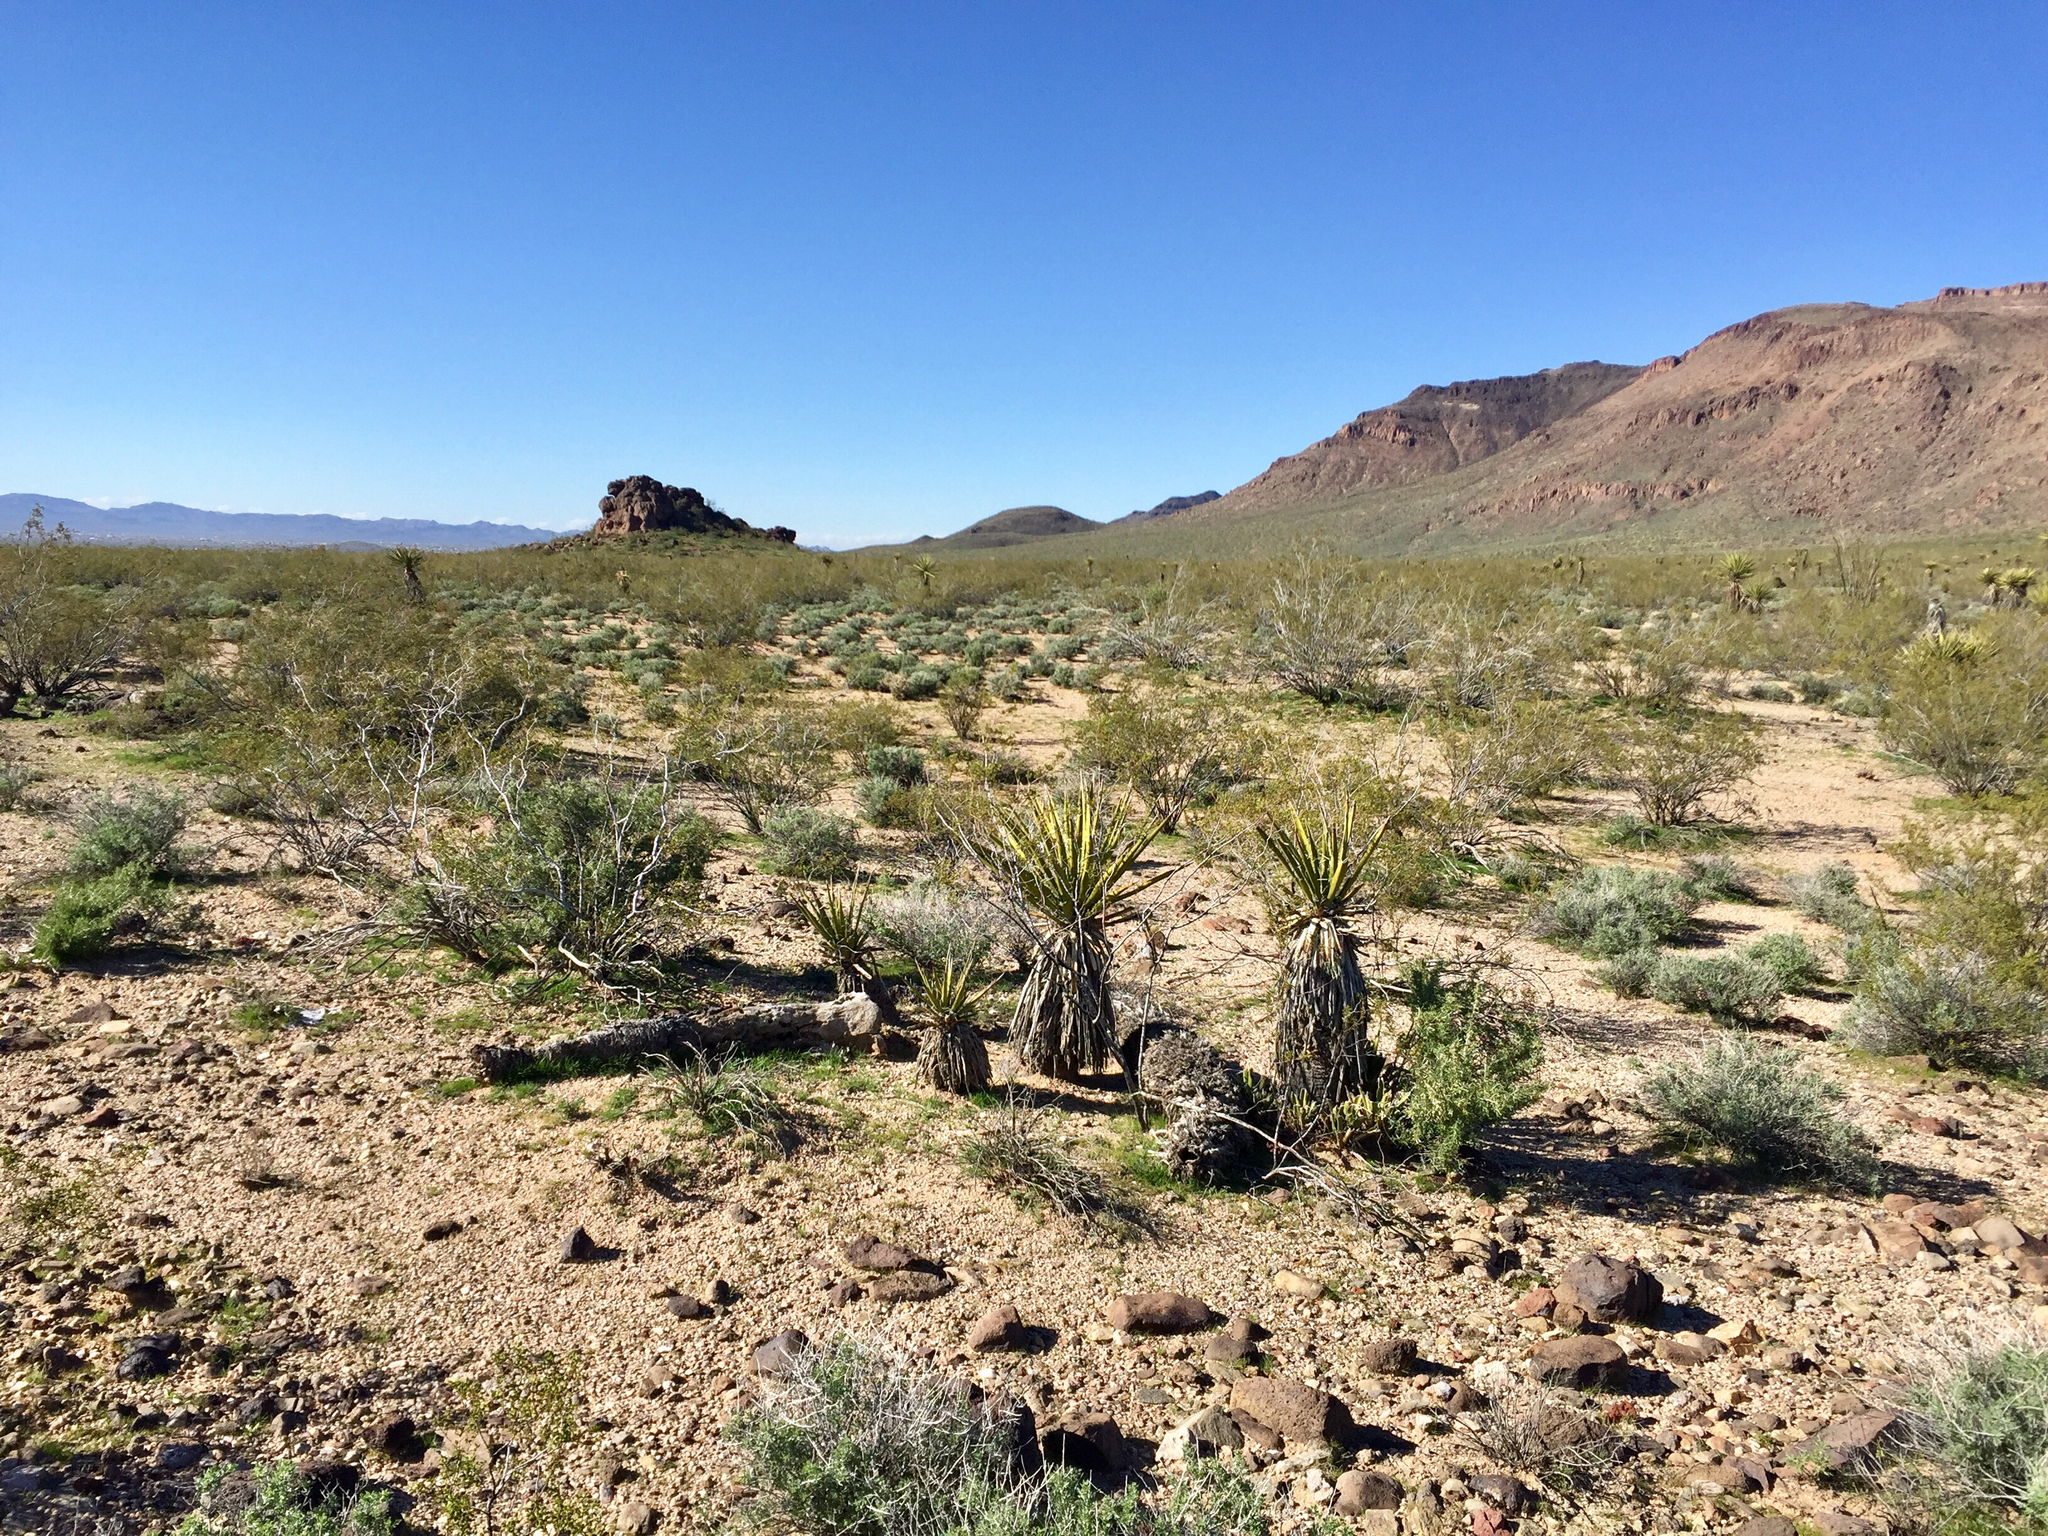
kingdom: Plantae
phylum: Tracheophyta
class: Liliopsida
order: Asparagales
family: Asparagaceae
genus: Yucca
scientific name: Yucca schidigera
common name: Mojave yucca
